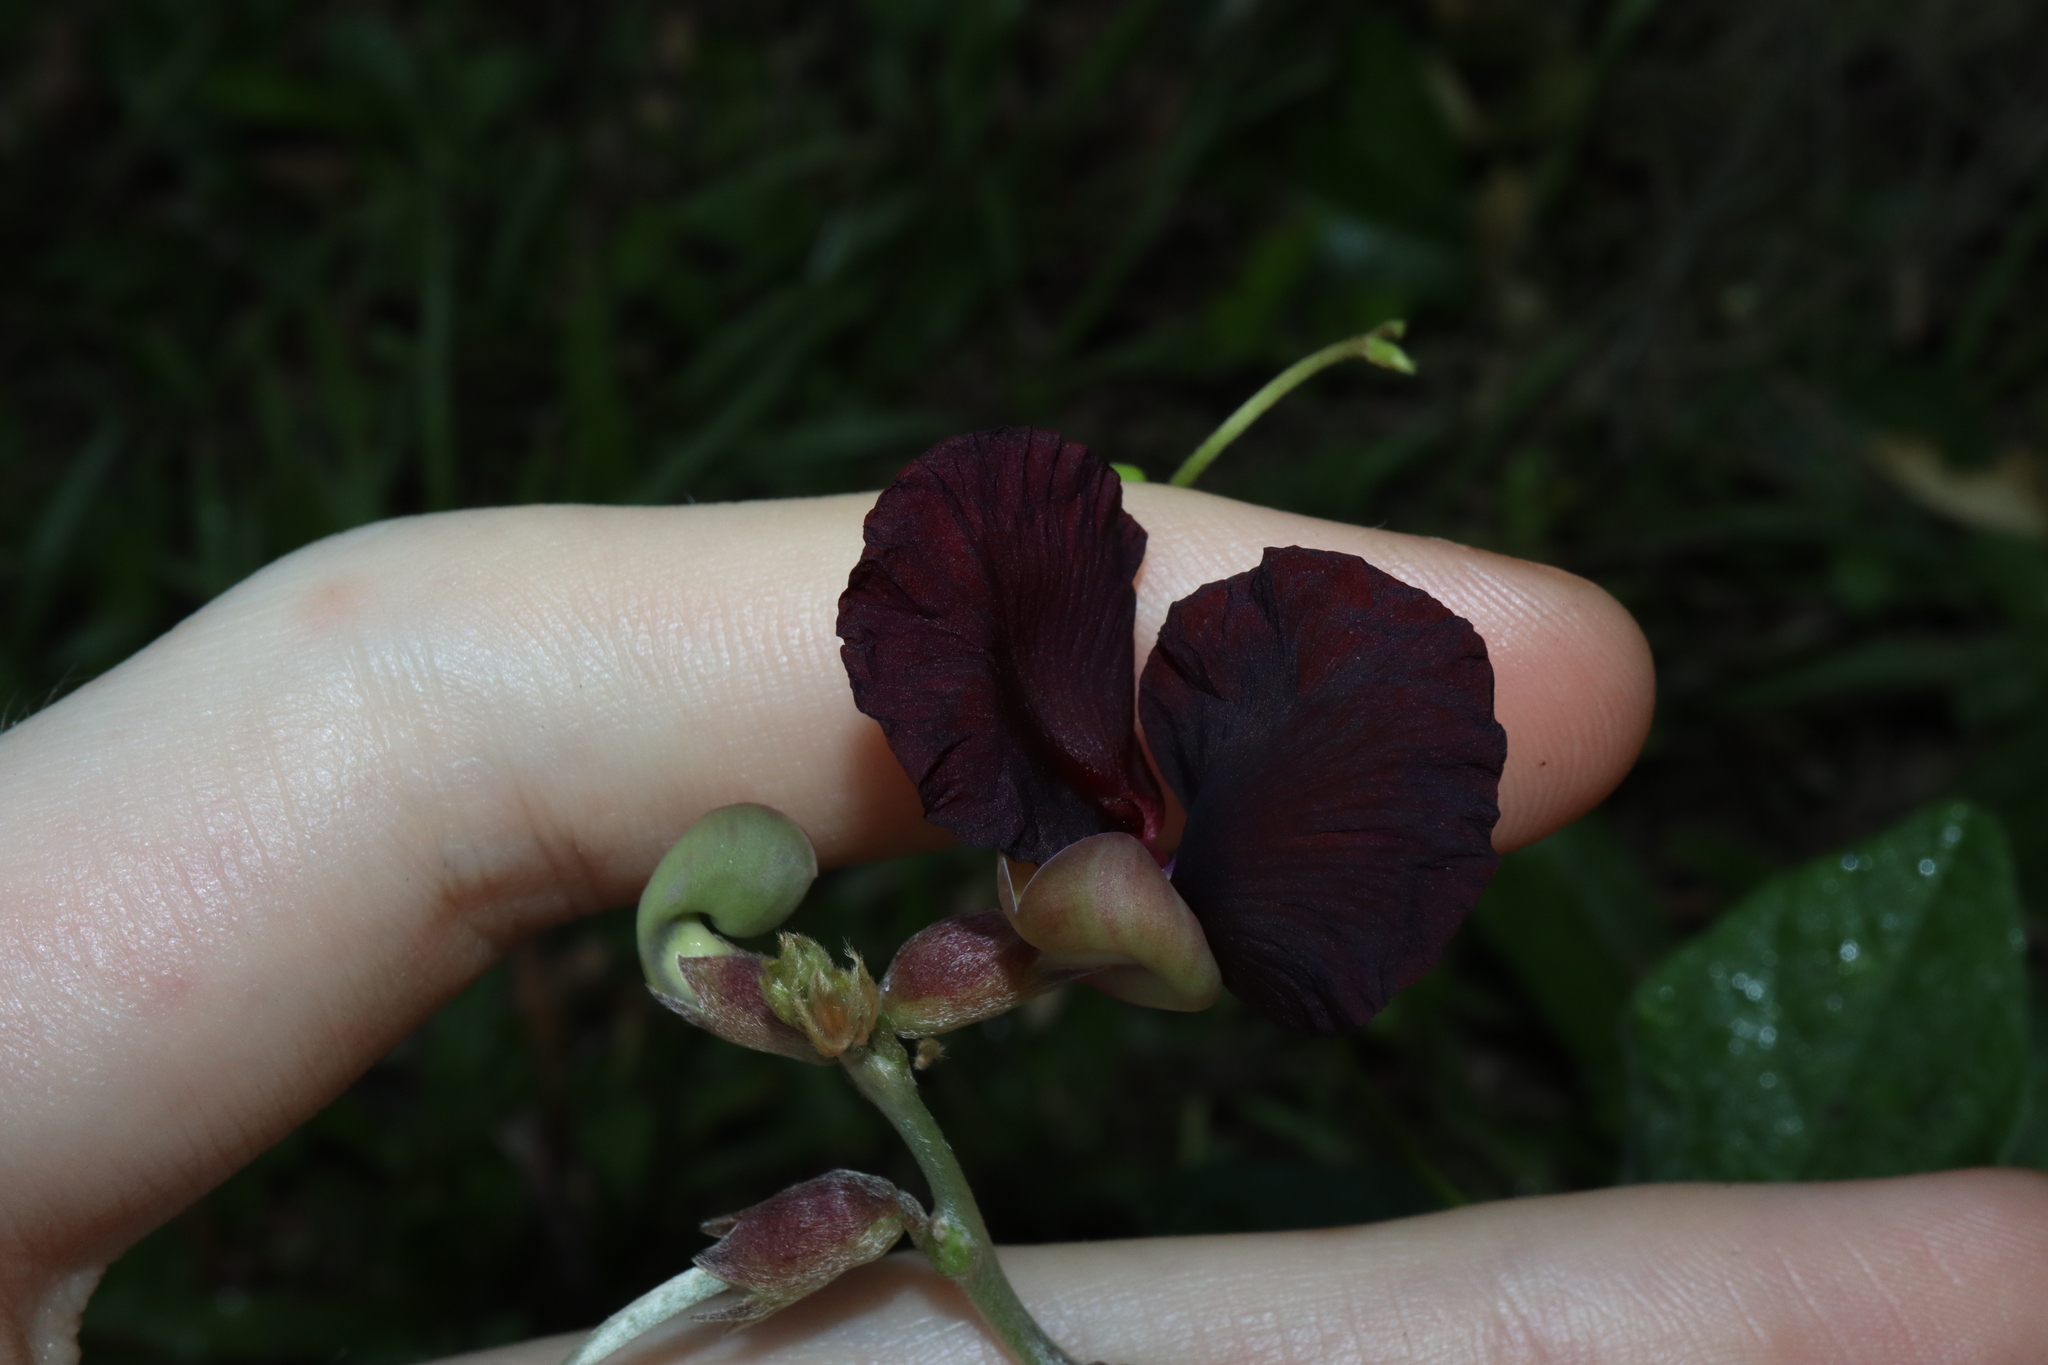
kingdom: Plantae
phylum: Tracheophyta
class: Magnoliopsida
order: Fabales
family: Fabaceae
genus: Macroptilium
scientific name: Macroptilium atropurpureum
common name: Purple bushbean
